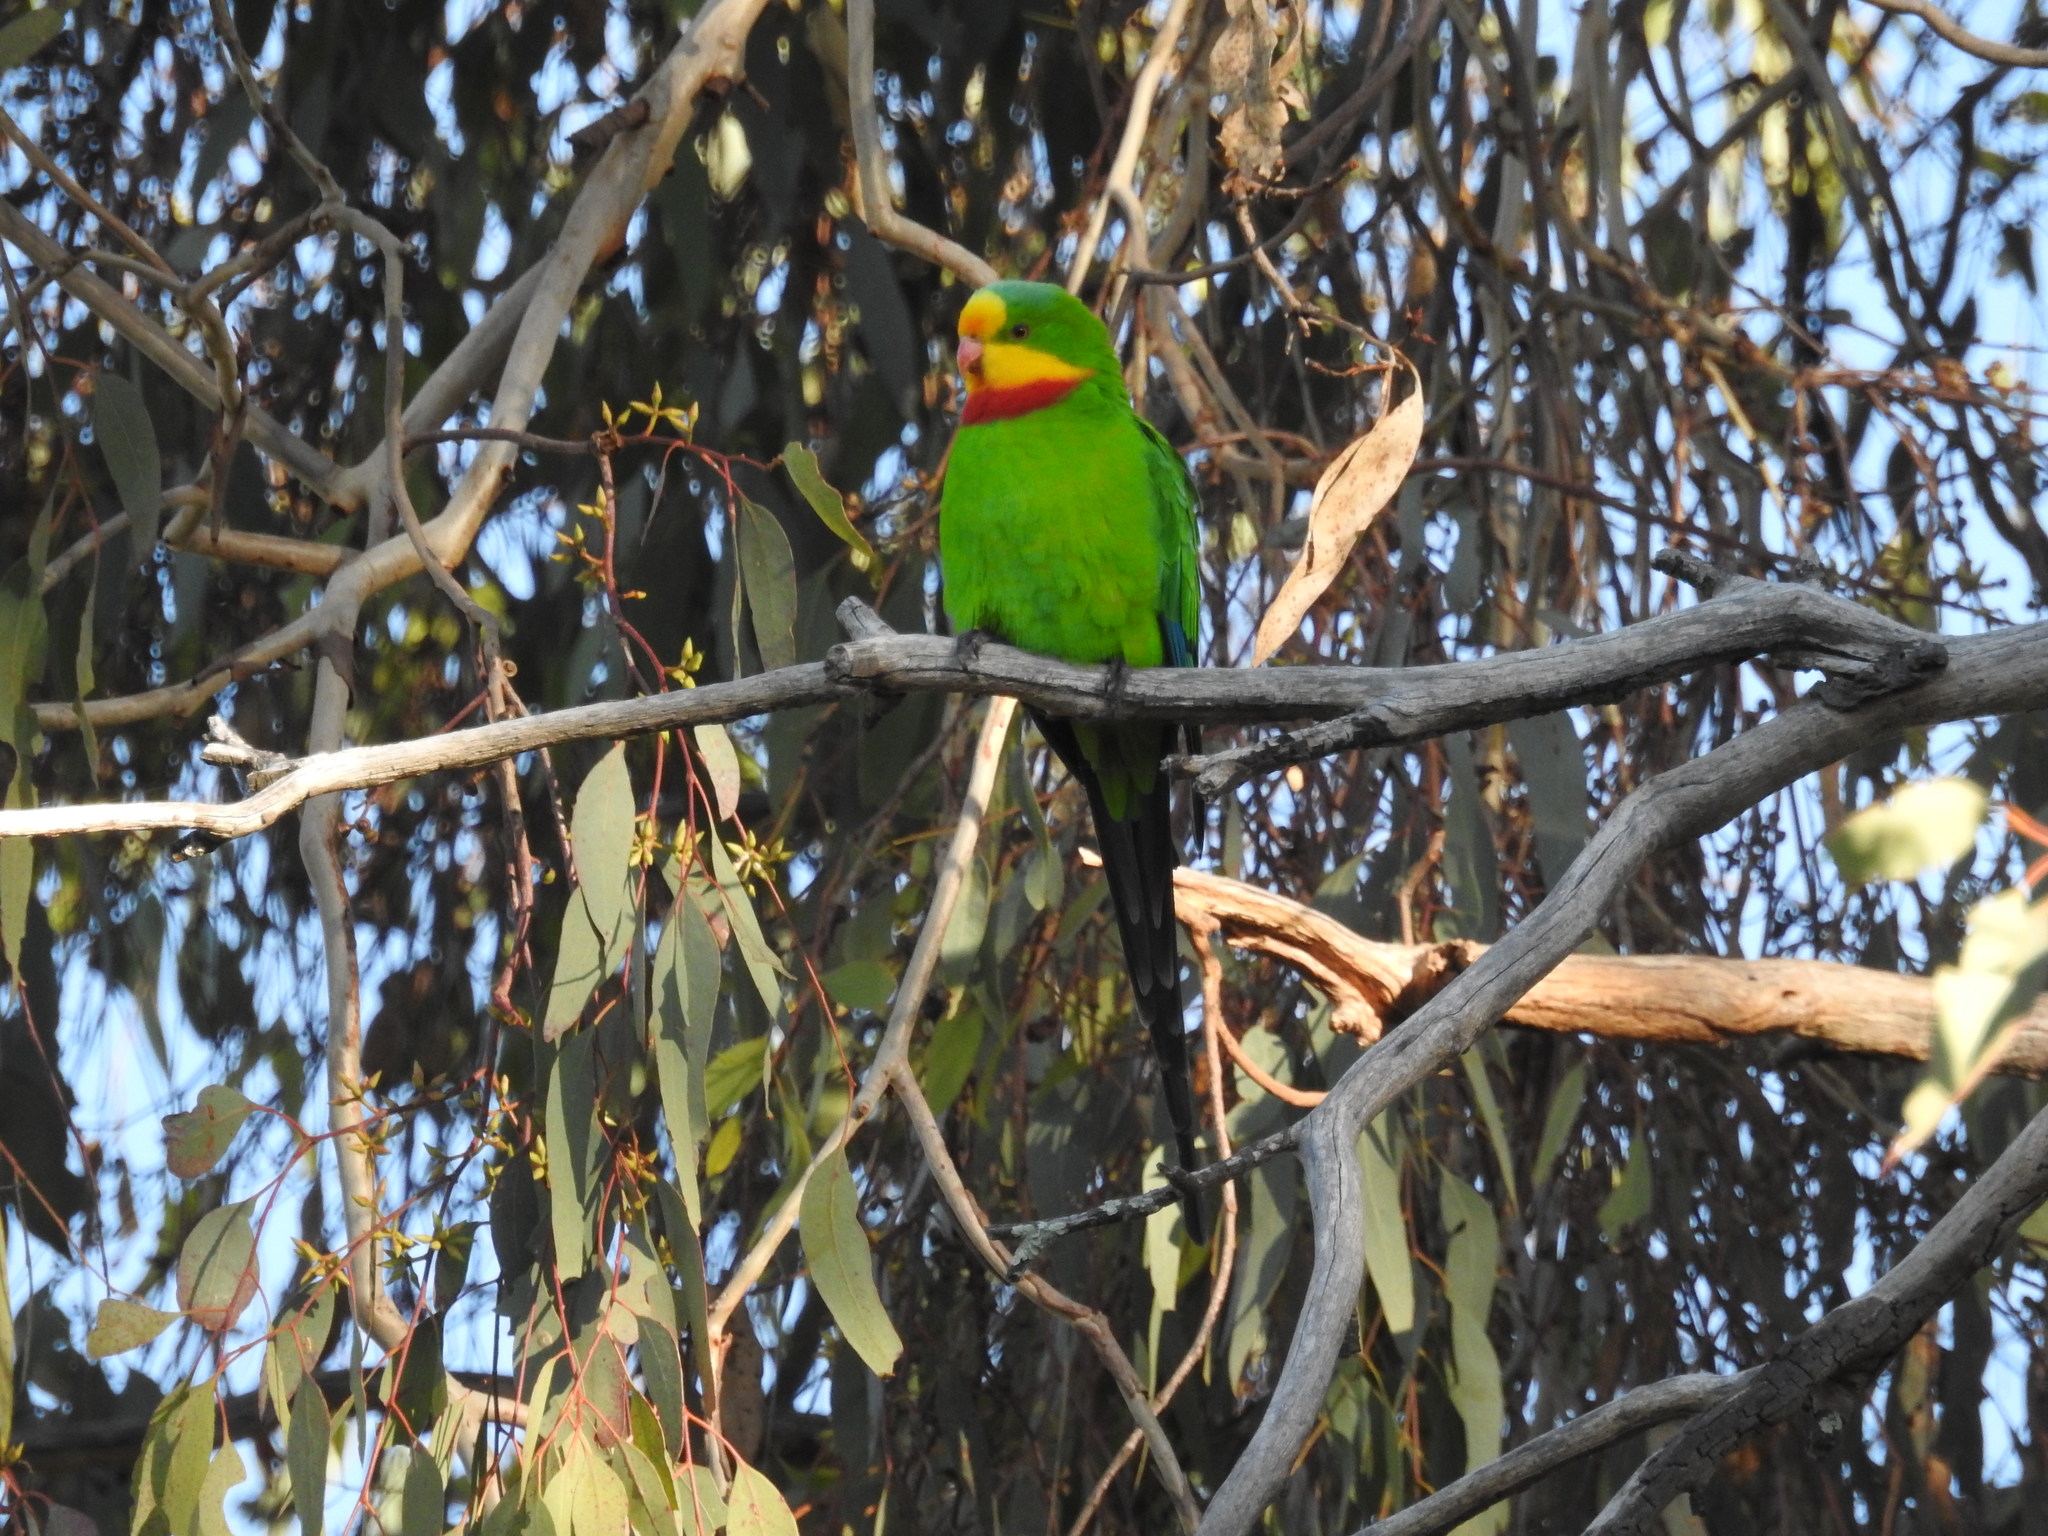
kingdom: Animalia
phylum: Chordata
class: Aves
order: Psittaciformes
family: Psittacidae
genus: Polytelis
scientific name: Polytelis swainsonii
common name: Superb parrot
